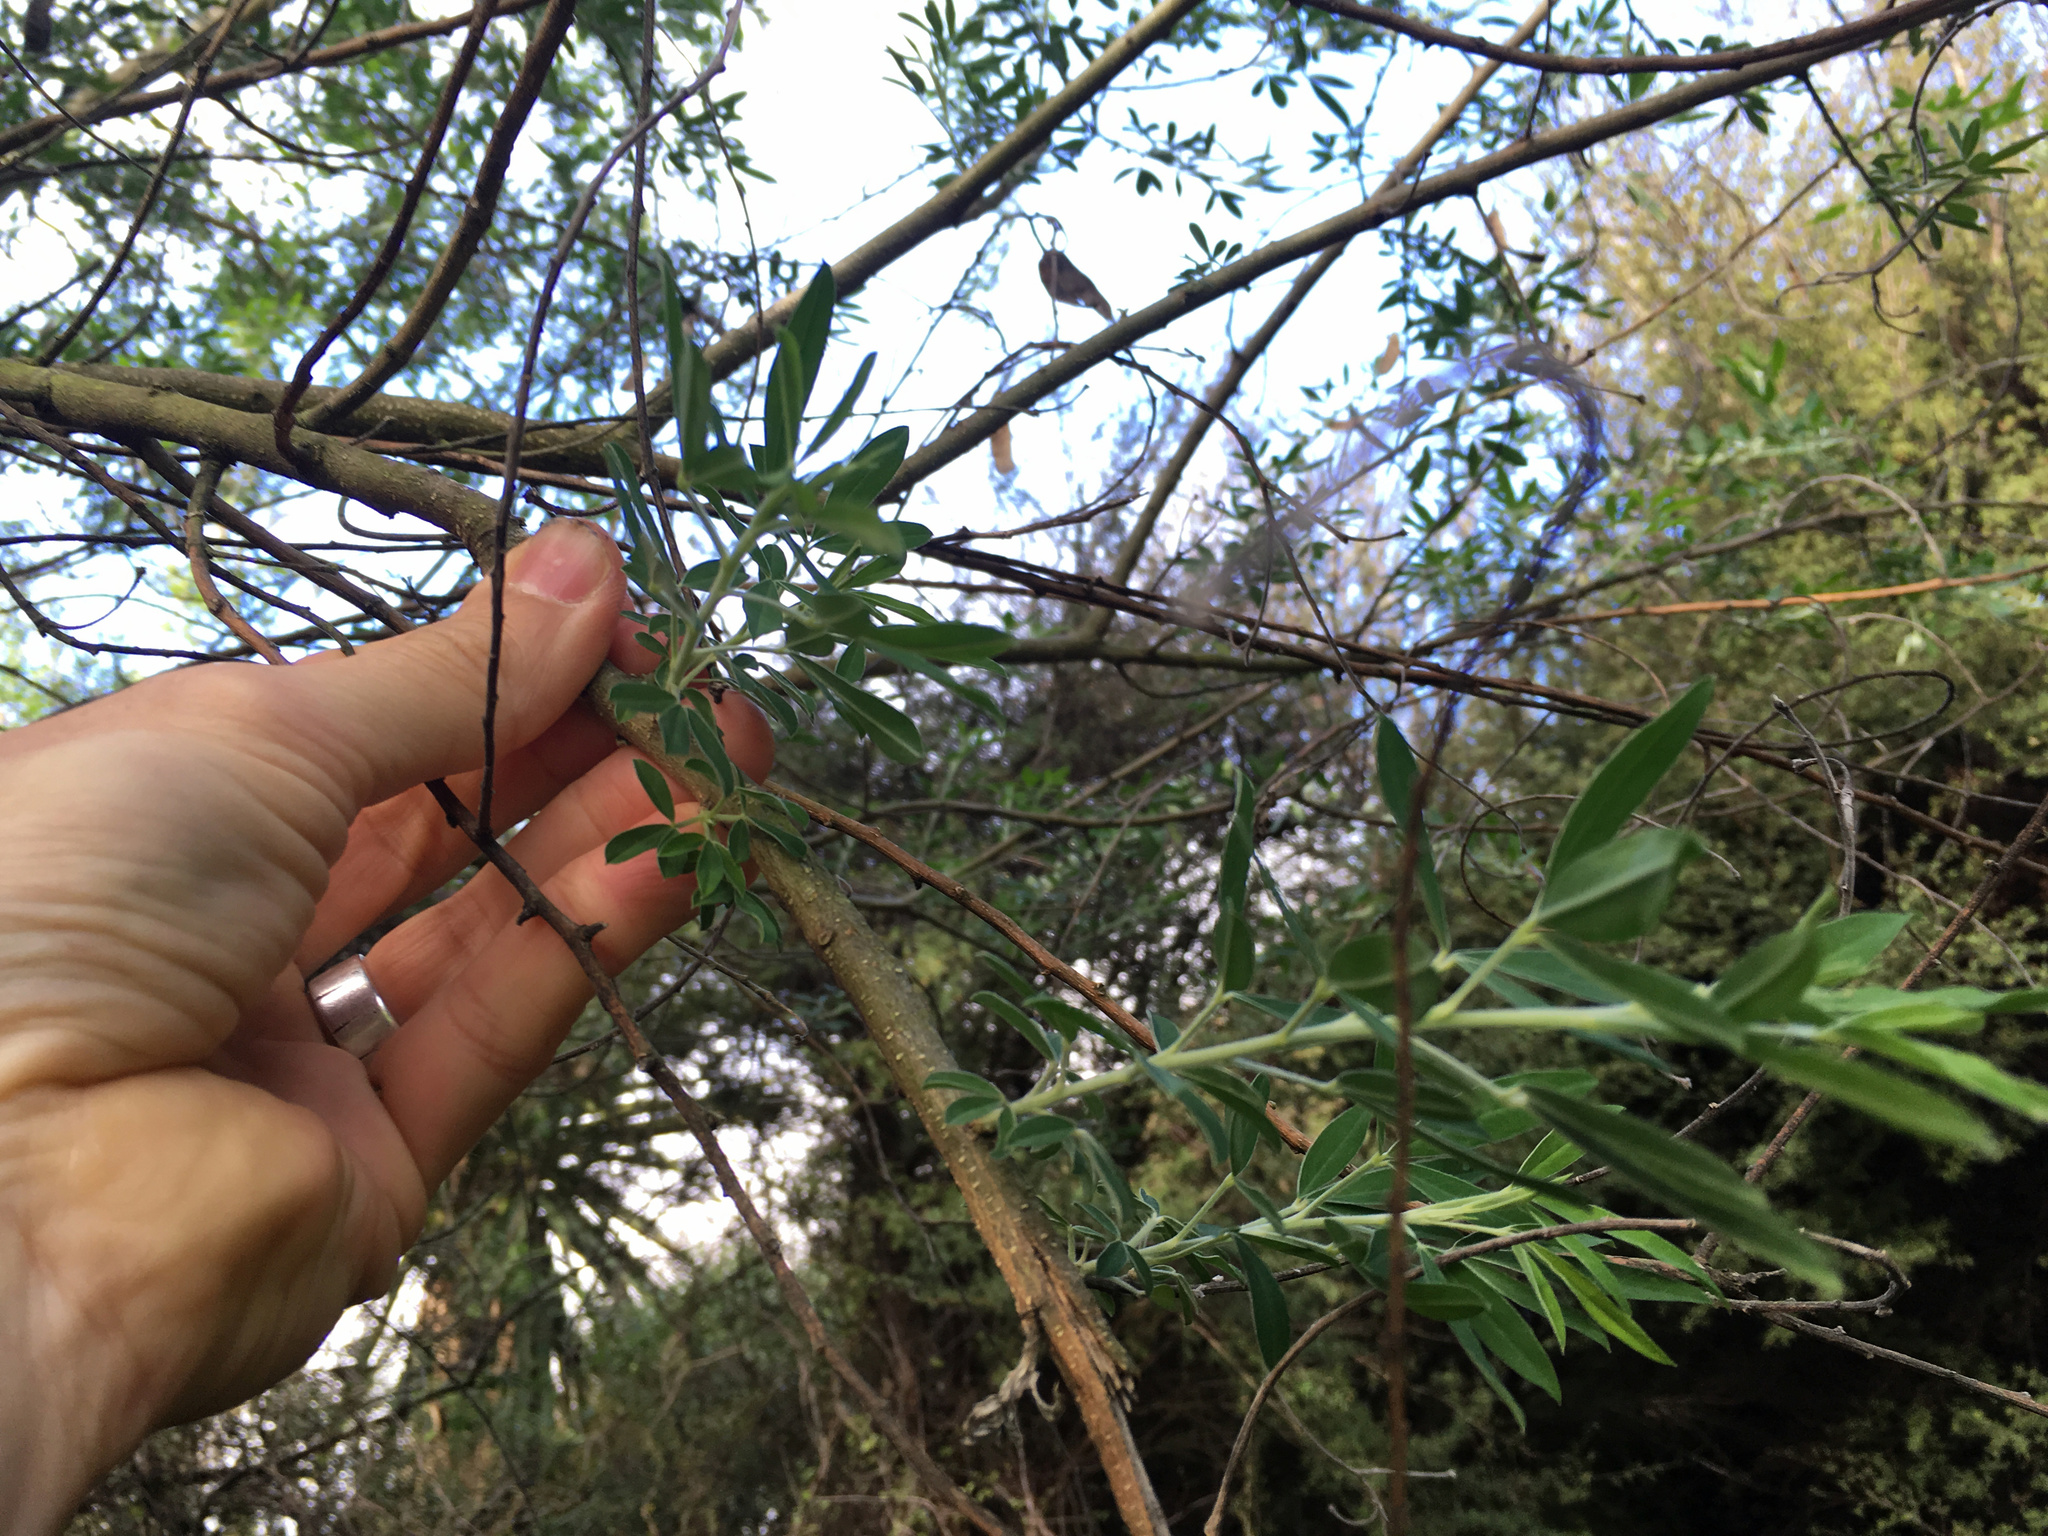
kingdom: Plantae
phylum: Tracheophyta
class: Magnoliopsida
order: Fabales
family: Fabaceae
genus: Chamaecytisus
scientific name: Chamaecytisus prolifer
